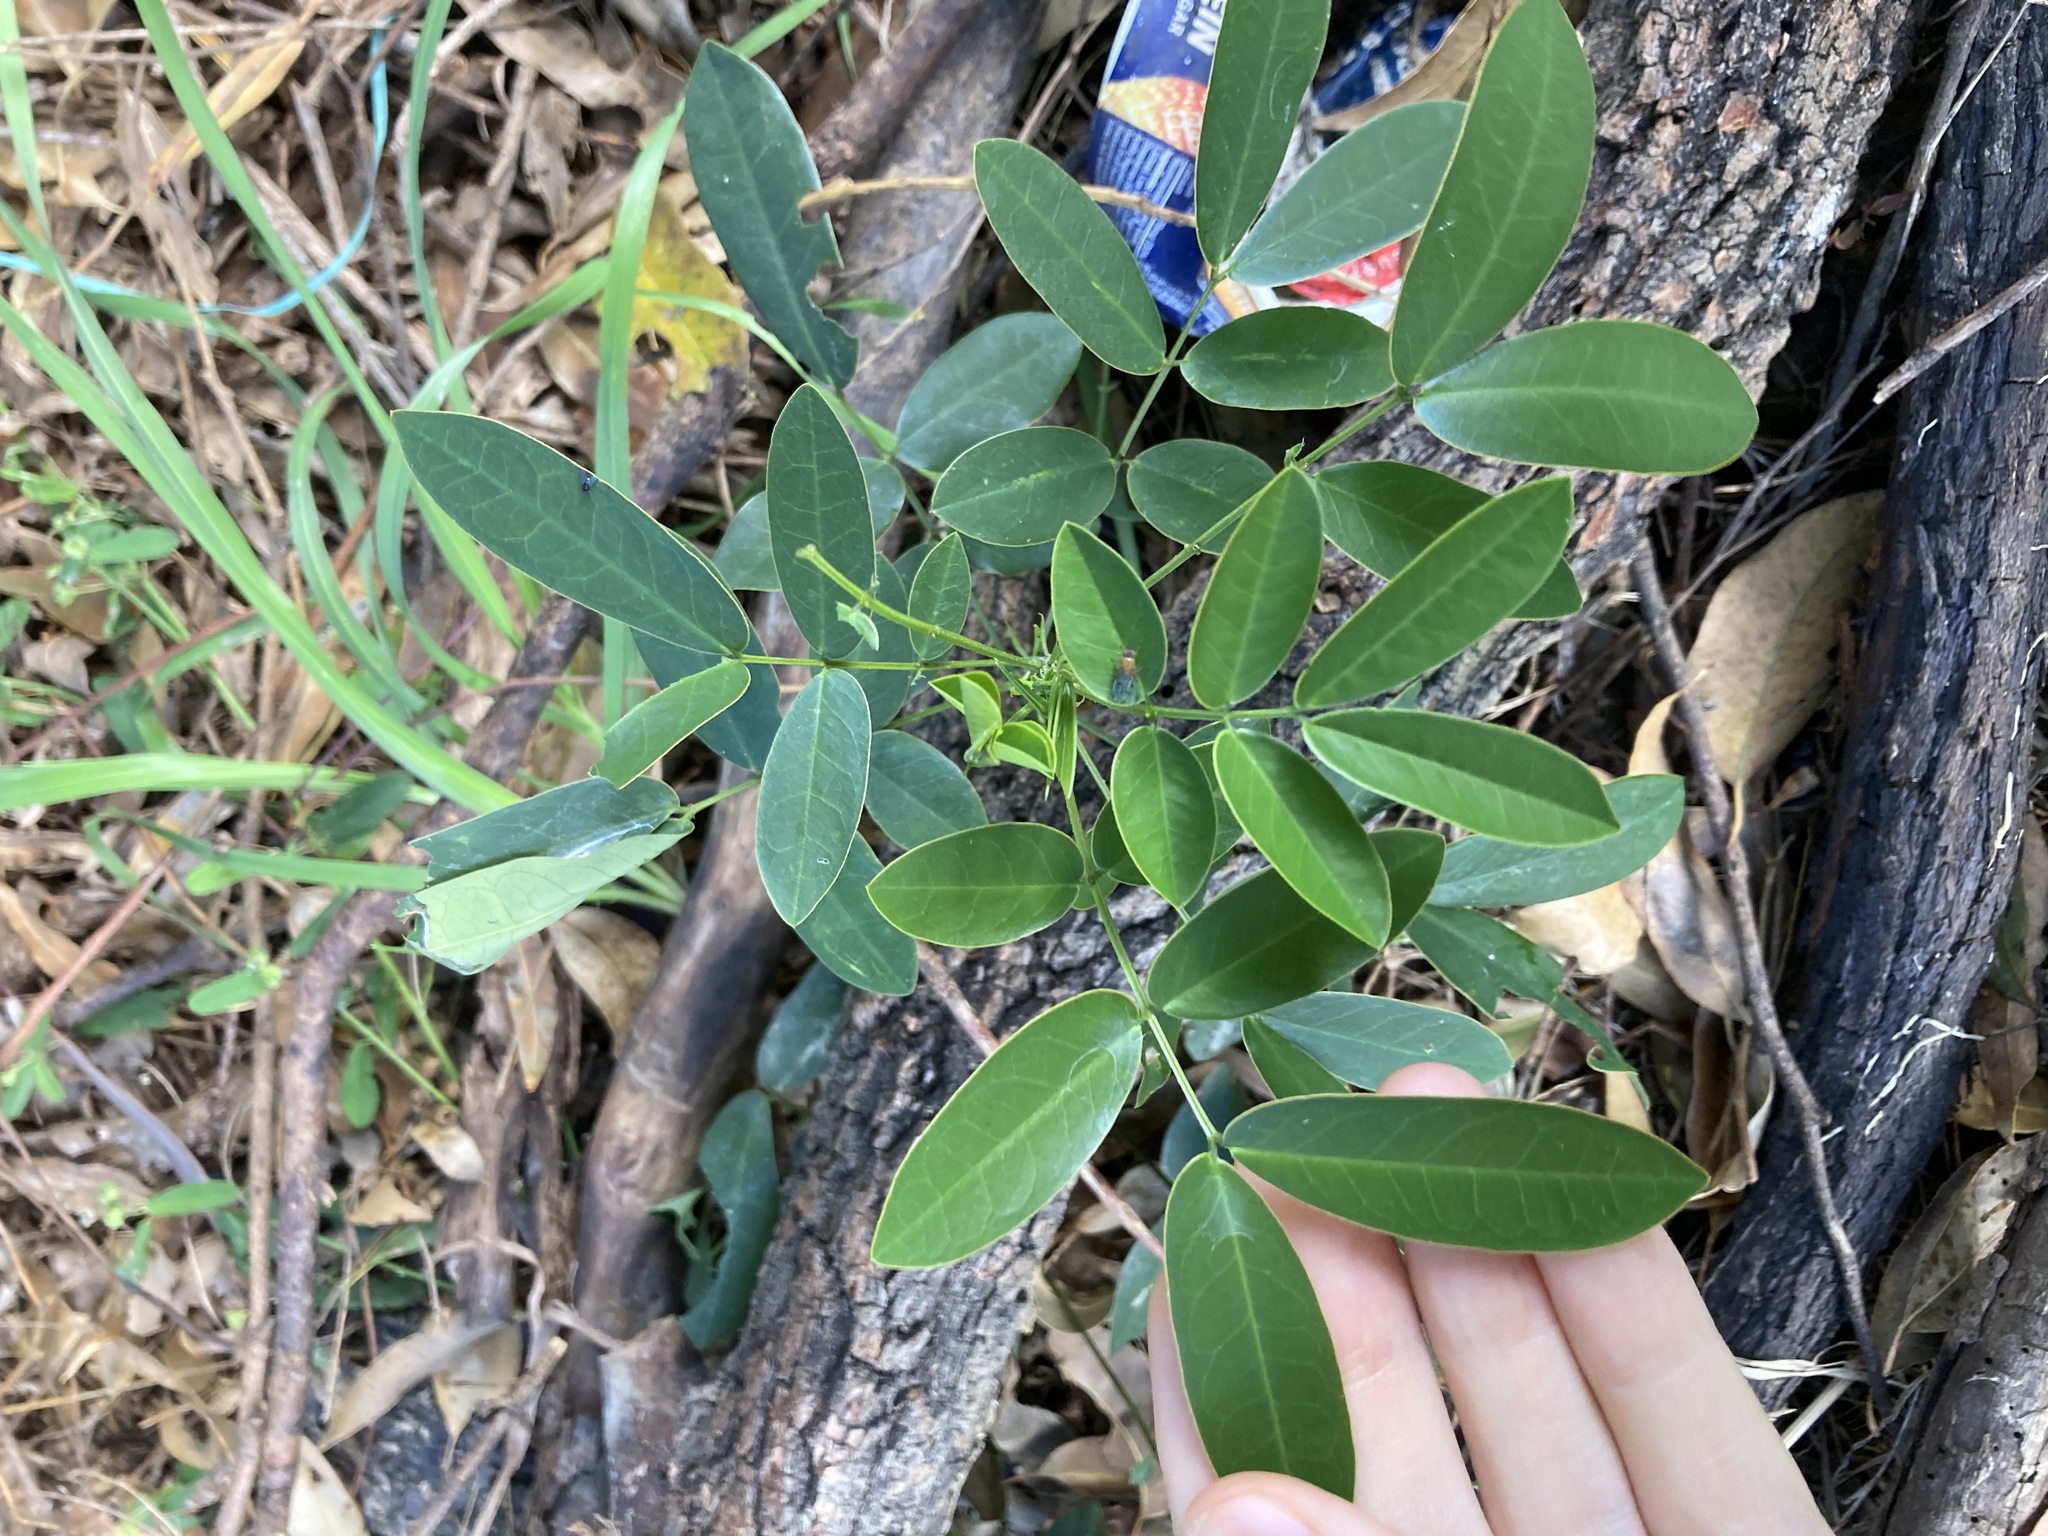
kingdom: Plantae
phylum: Tracheophyta
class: Magnoliopsida
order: Fabales
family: Fabaceae
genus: Senna
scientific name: Senna pendula
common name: Easter cassia
